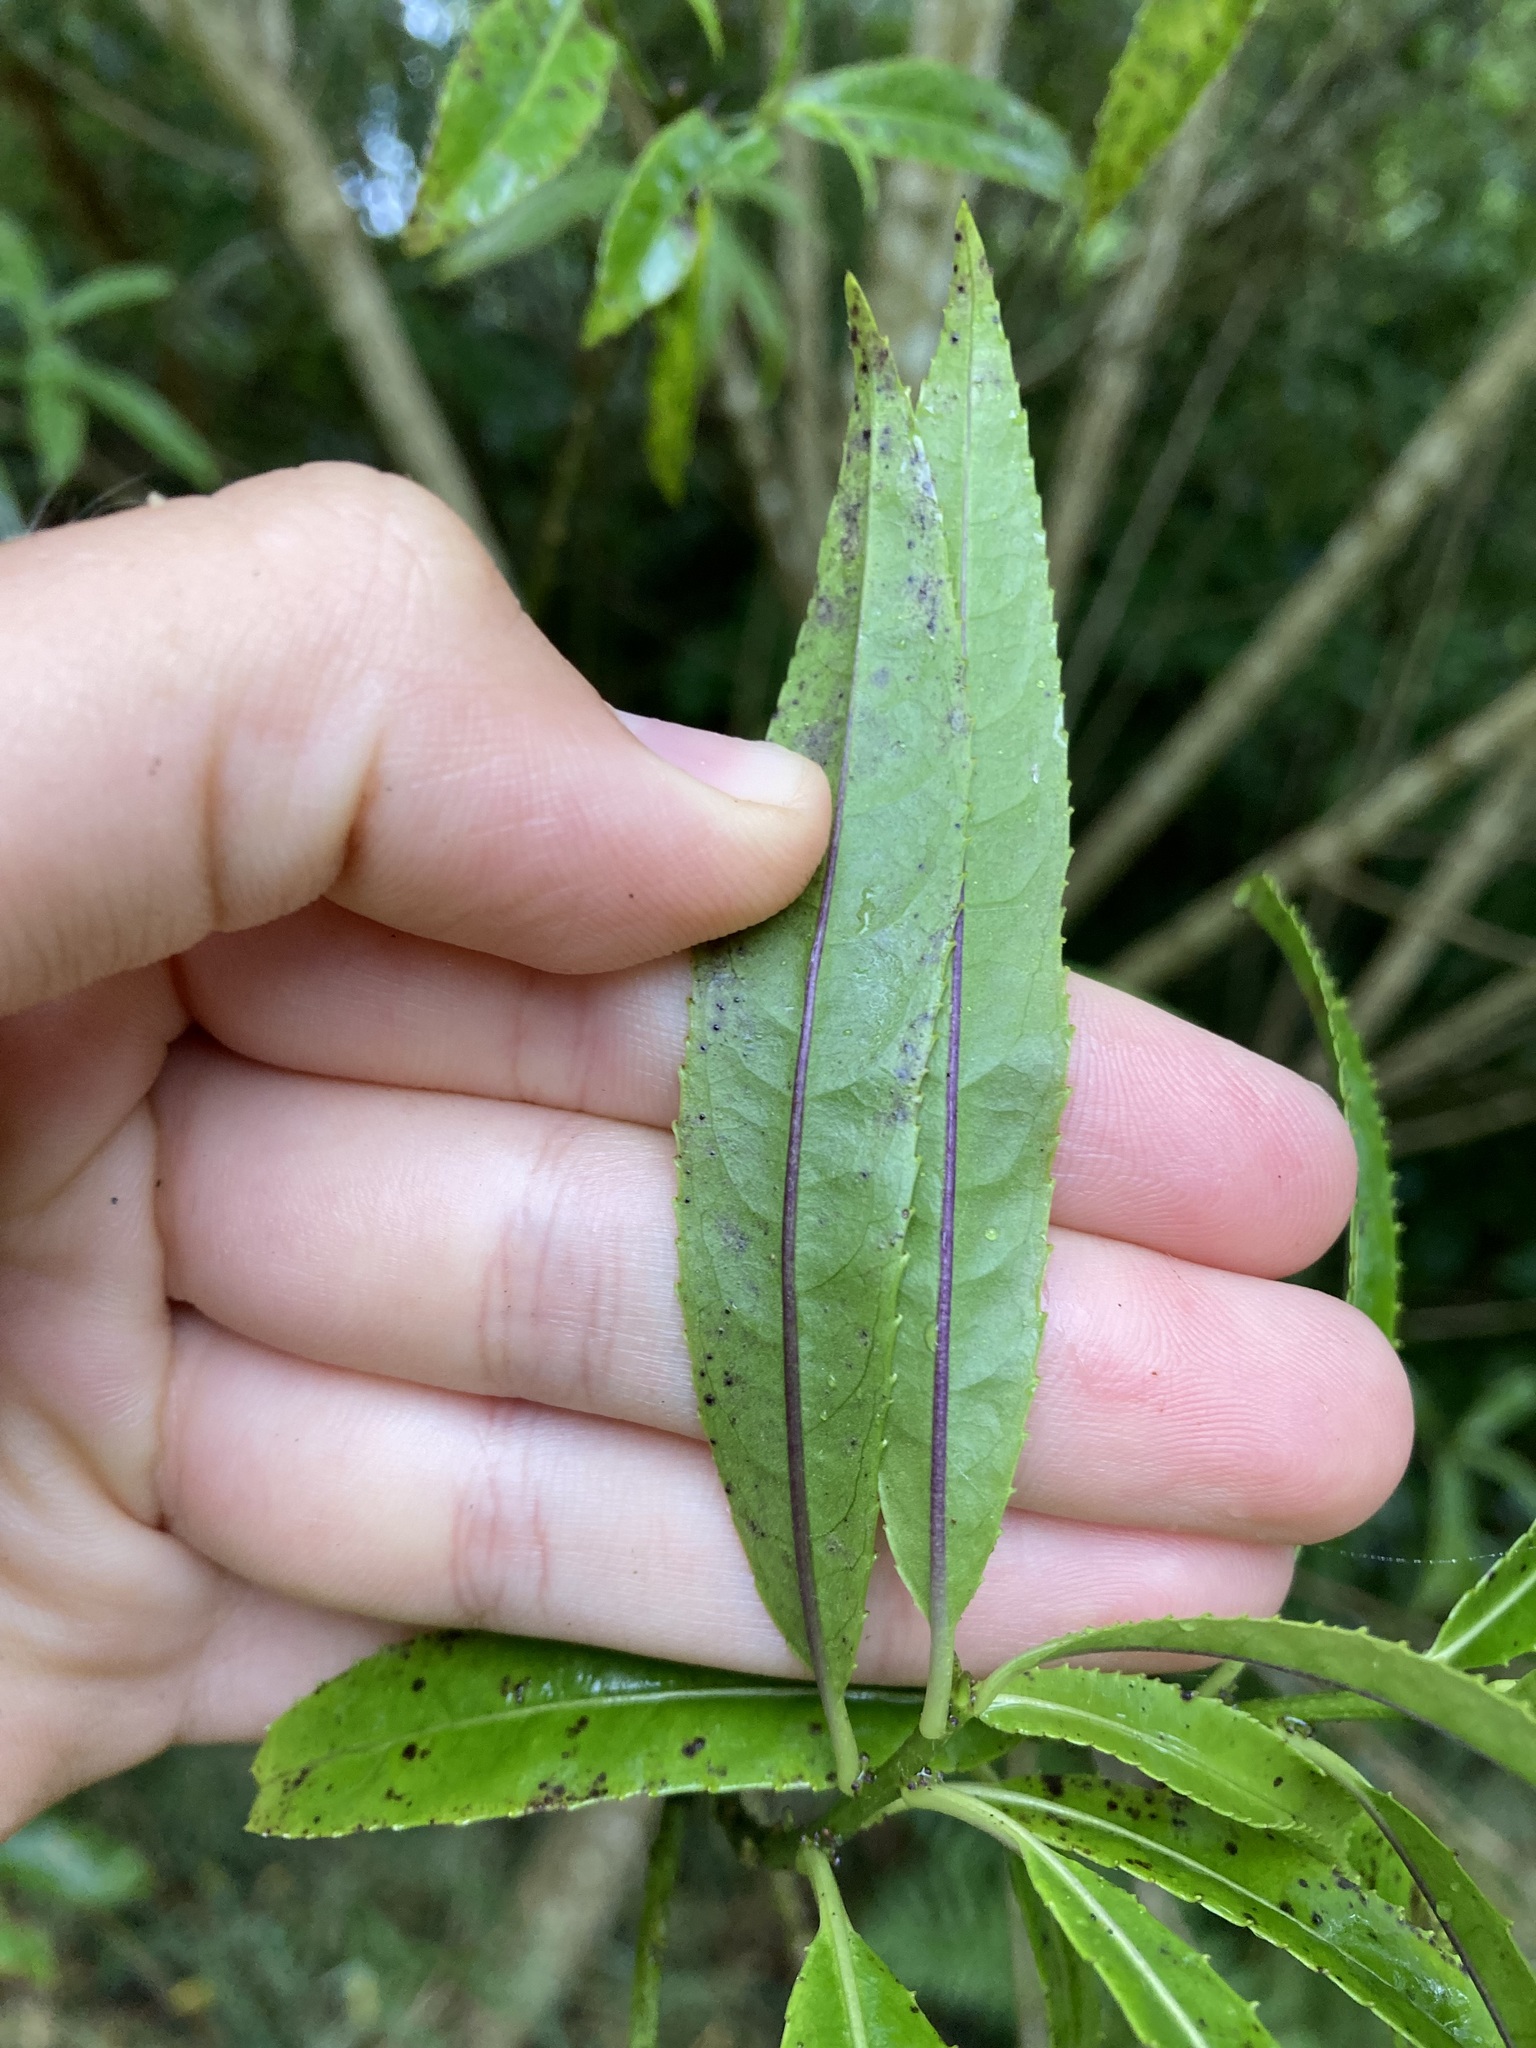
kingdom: Plantae
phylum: Tracheophyta
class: Magnoliopsida
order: Malpighiales
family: Violaceae
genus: Melicytus
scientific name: Melicytus lanceolatus
